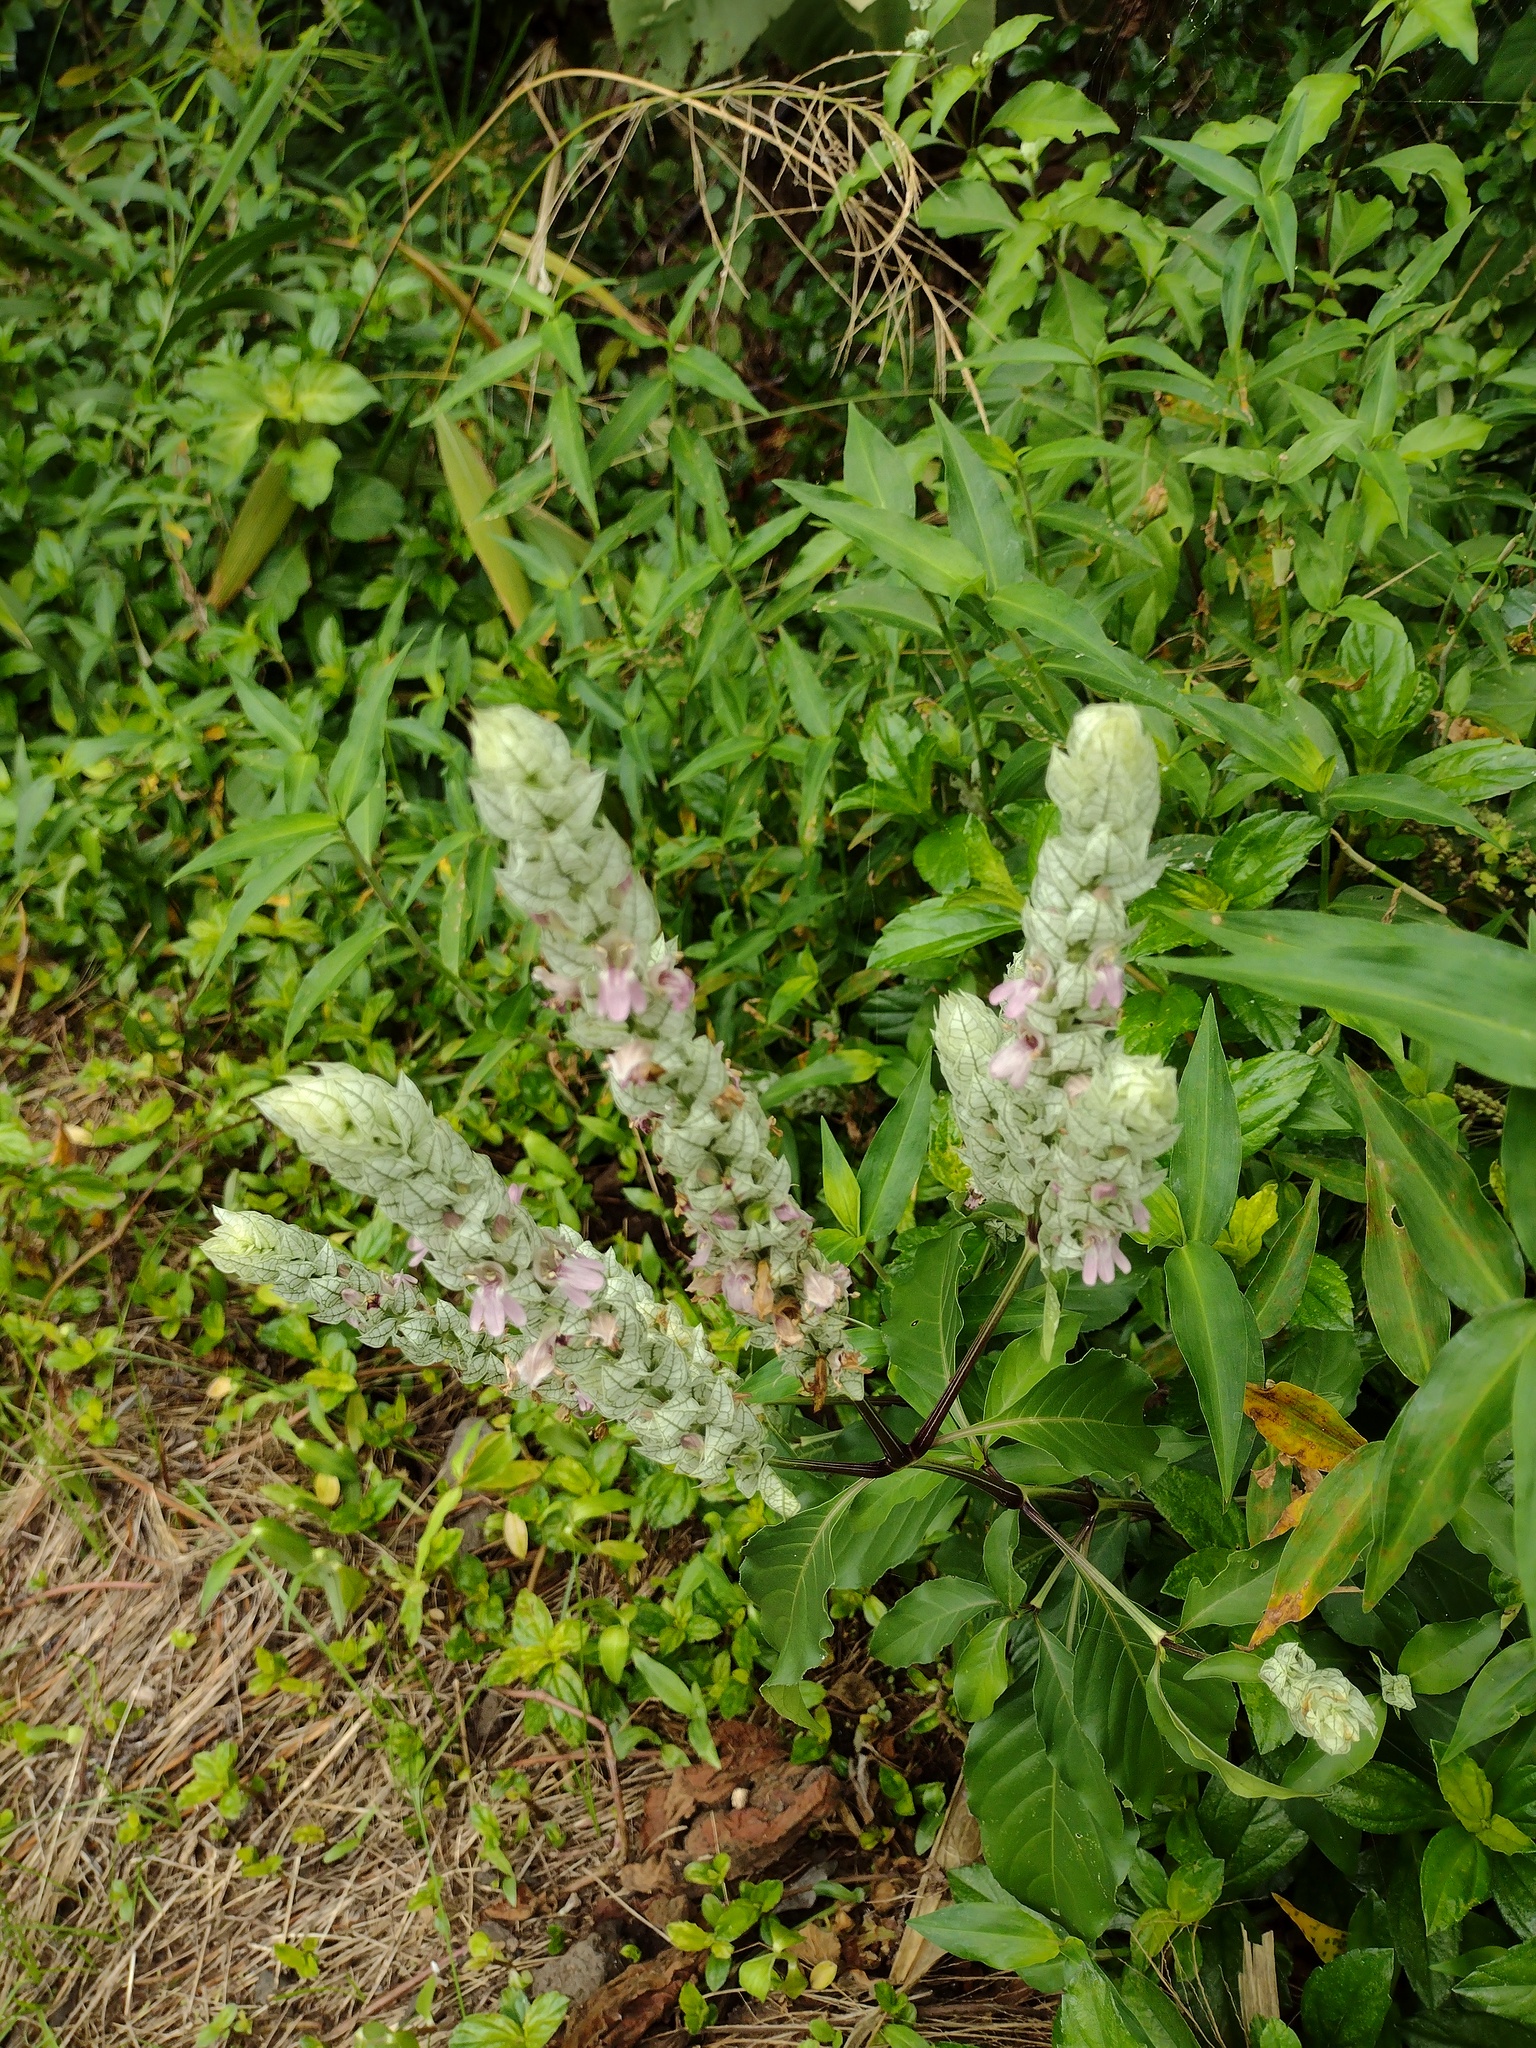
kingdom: Plantae
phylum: Tracheophyta
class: Magnoliopsida
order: Lamiales
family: Acanthaceae
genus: Justicia
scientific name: Justicia betonica
